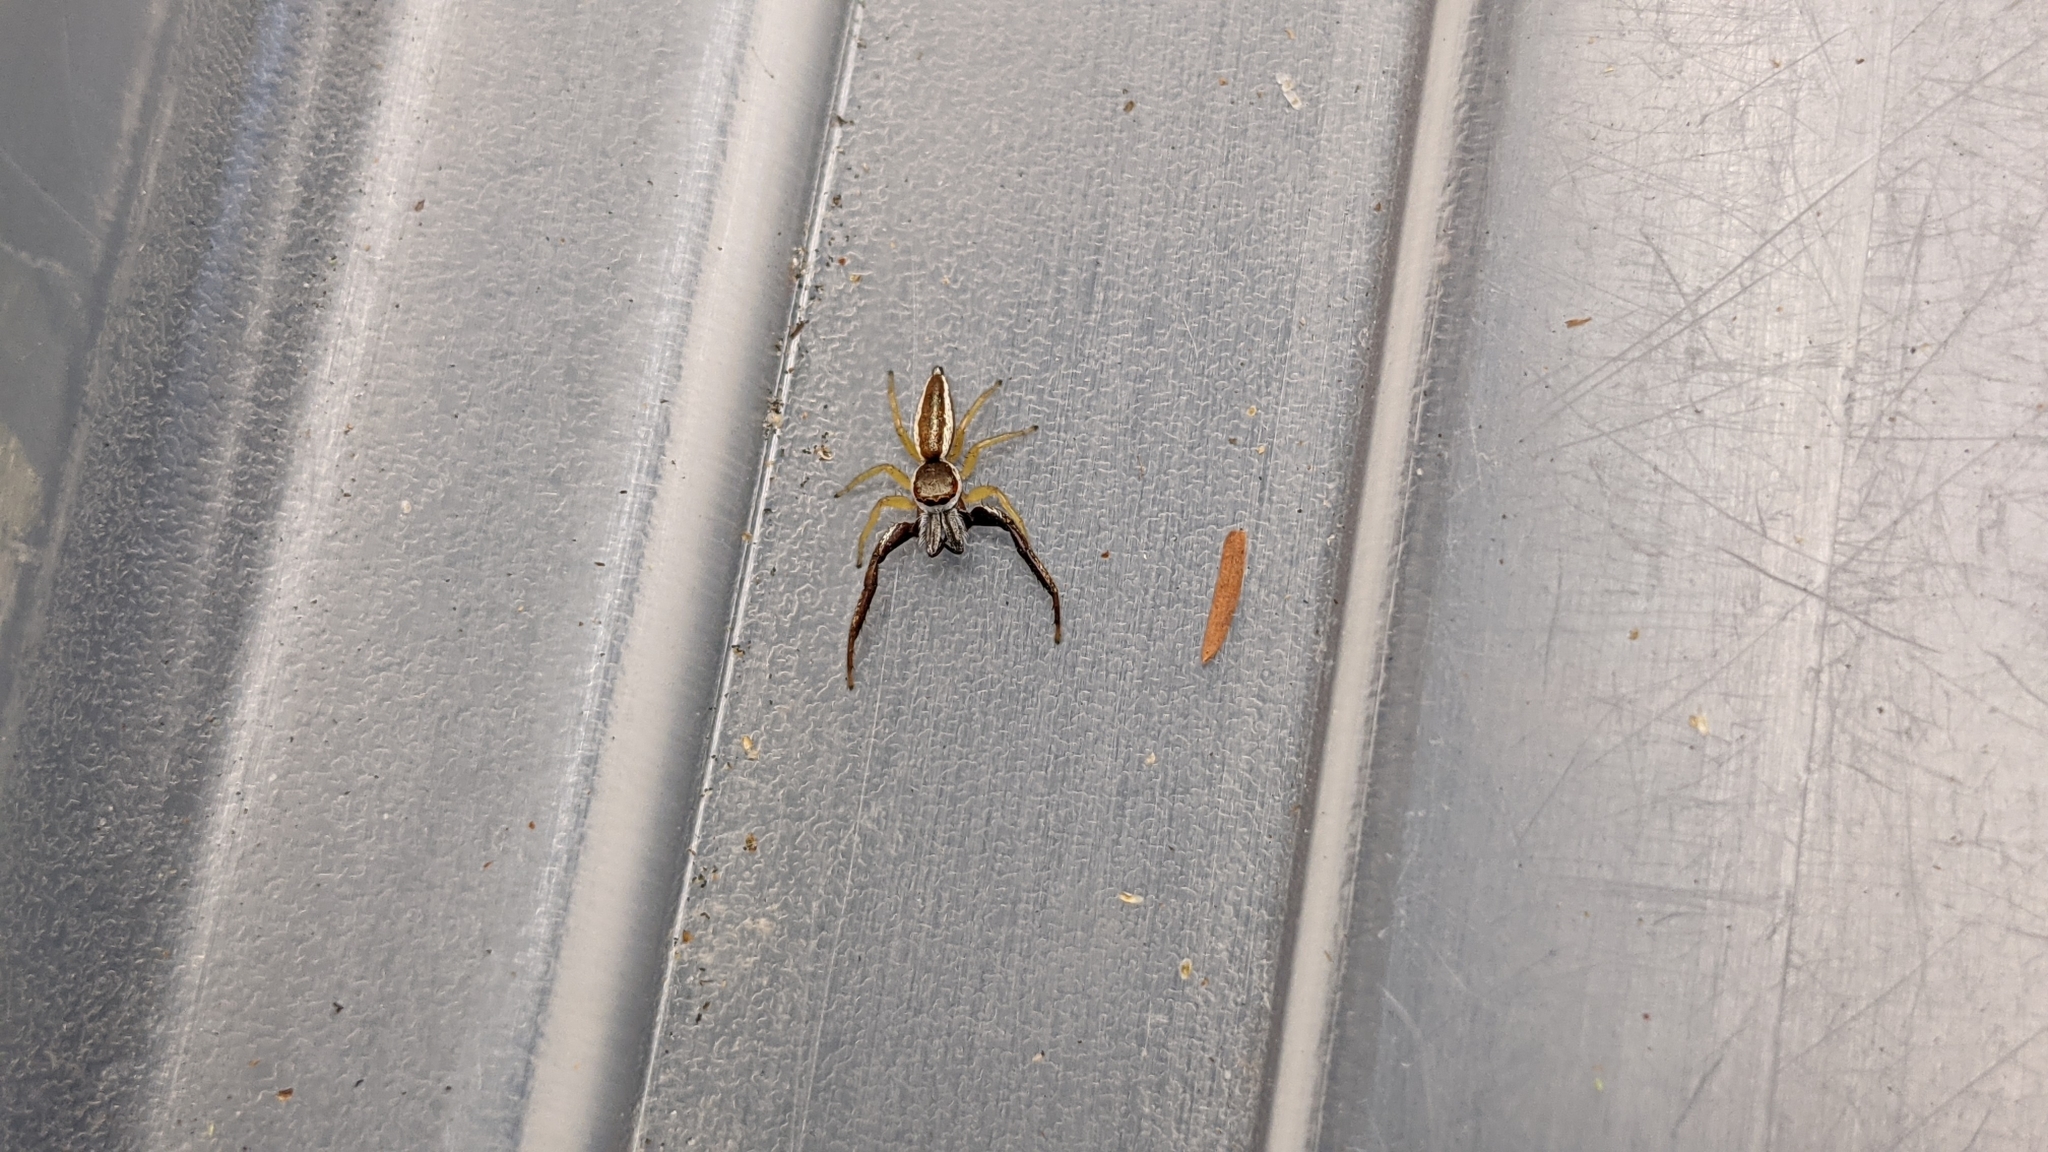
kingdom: Animalia
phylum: Arthropoda
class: Arachnida
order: Araneae
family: Salticidae
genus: Hentzia
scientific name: Hentzia palmarum
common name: Common hentz jumping spider
